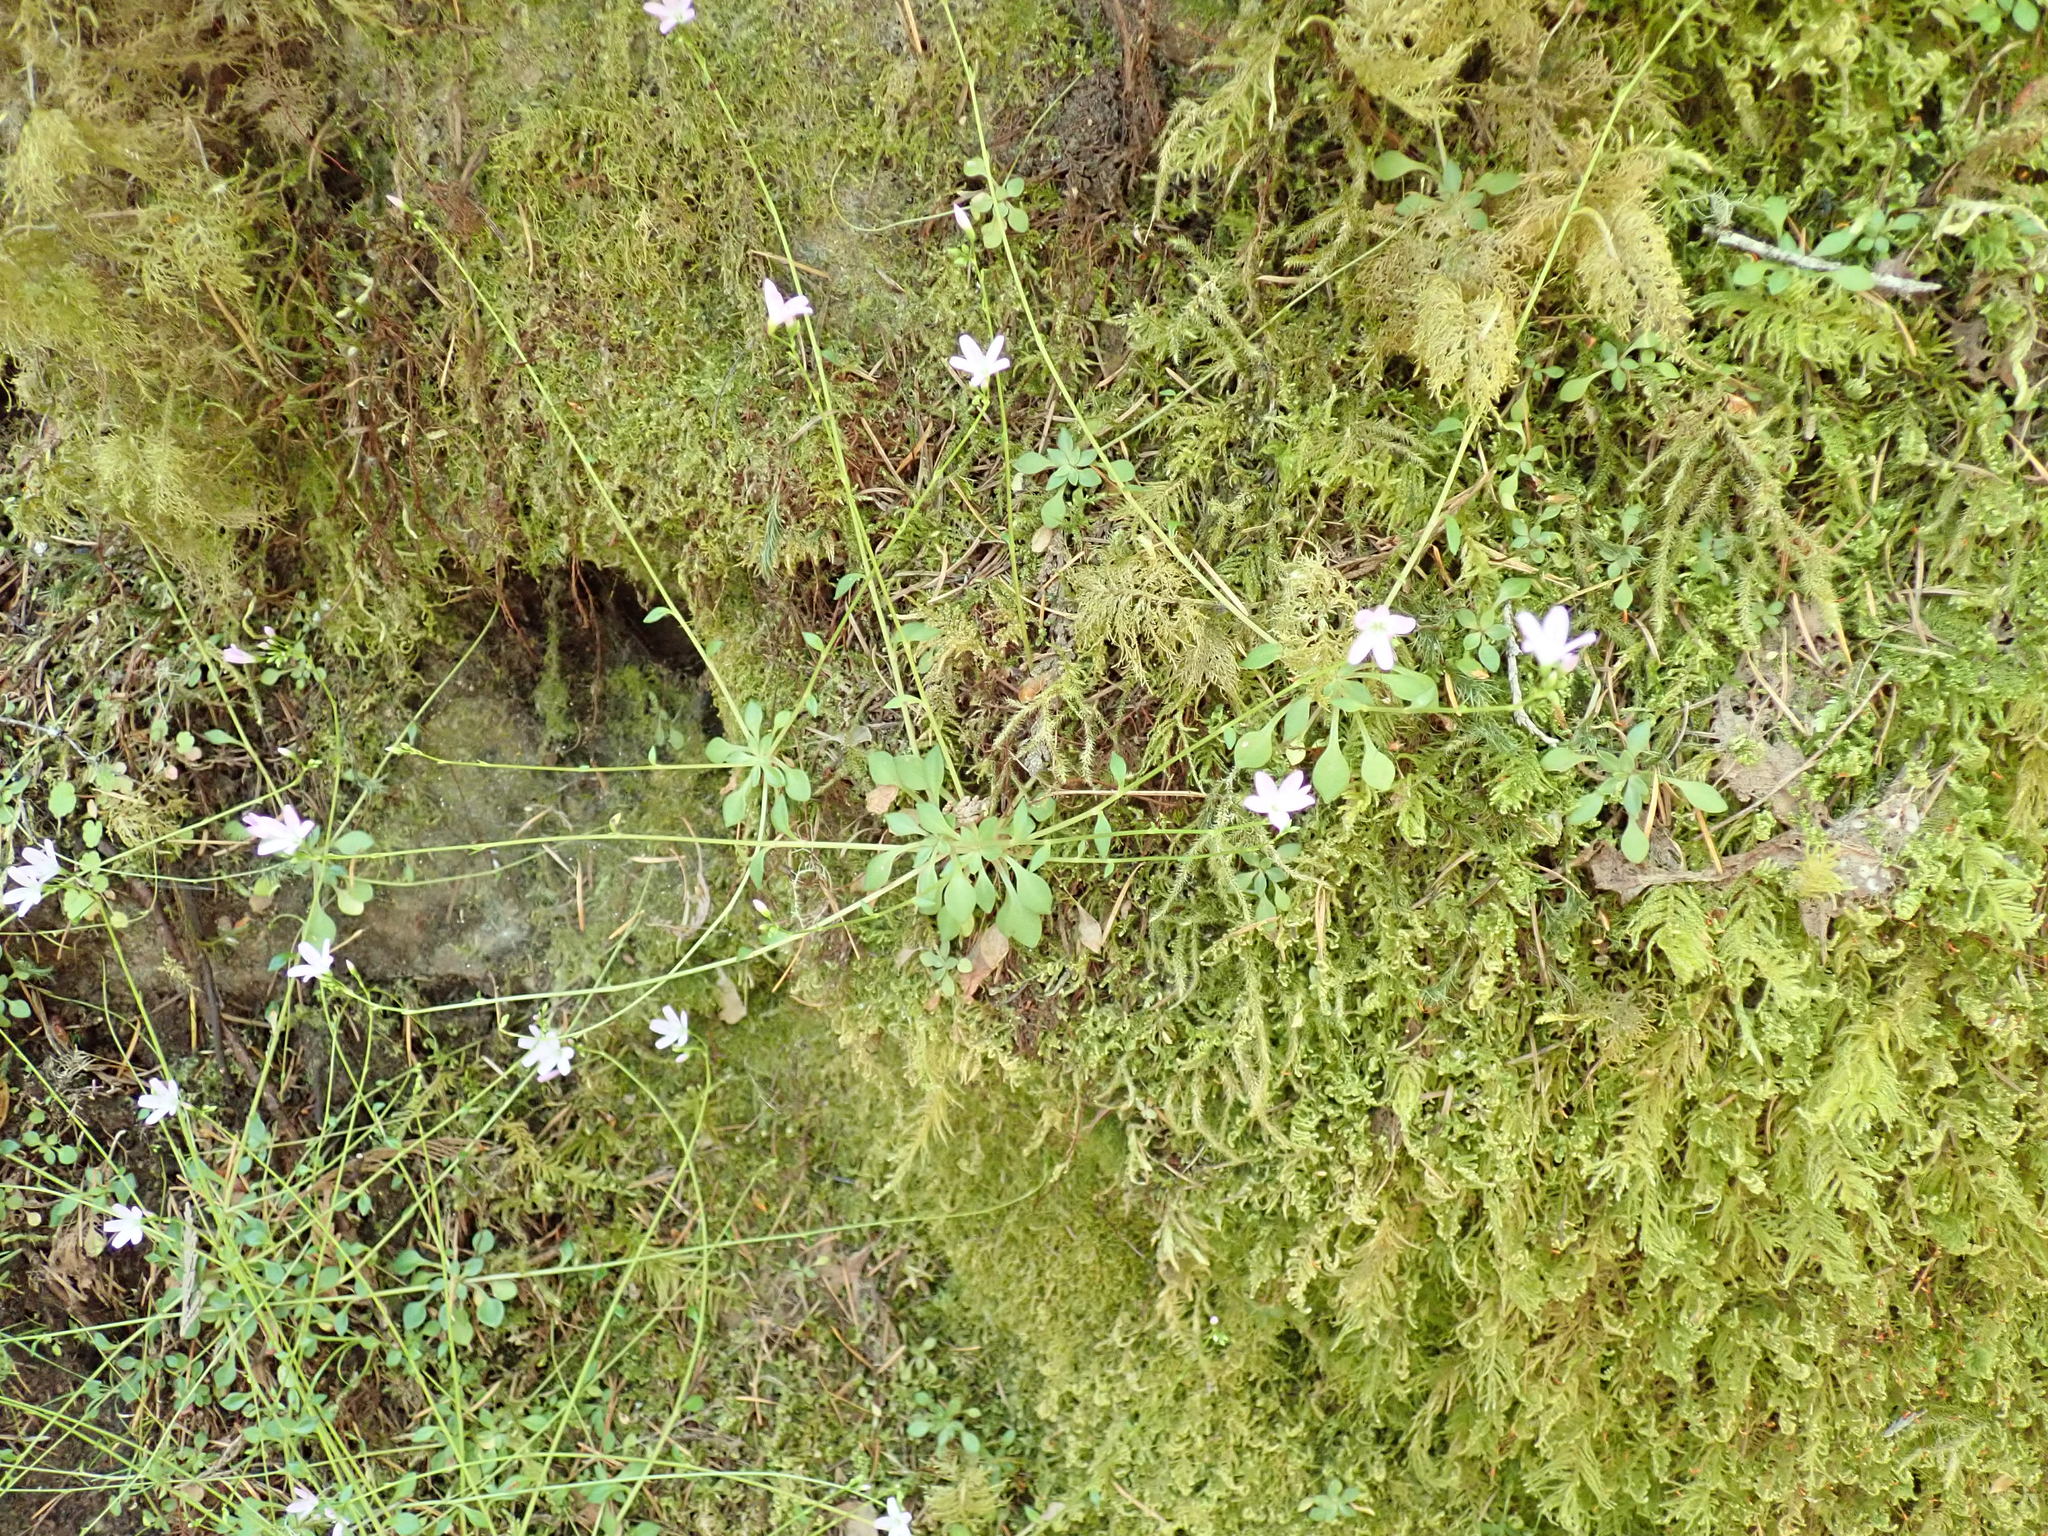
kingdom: Plantae
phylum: Tracheophyta
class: Magnoliopsida
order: Caryophyllales
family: Montiaceae
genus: Montia
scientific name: Montia parvifolia
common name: Small-leaved blinks
